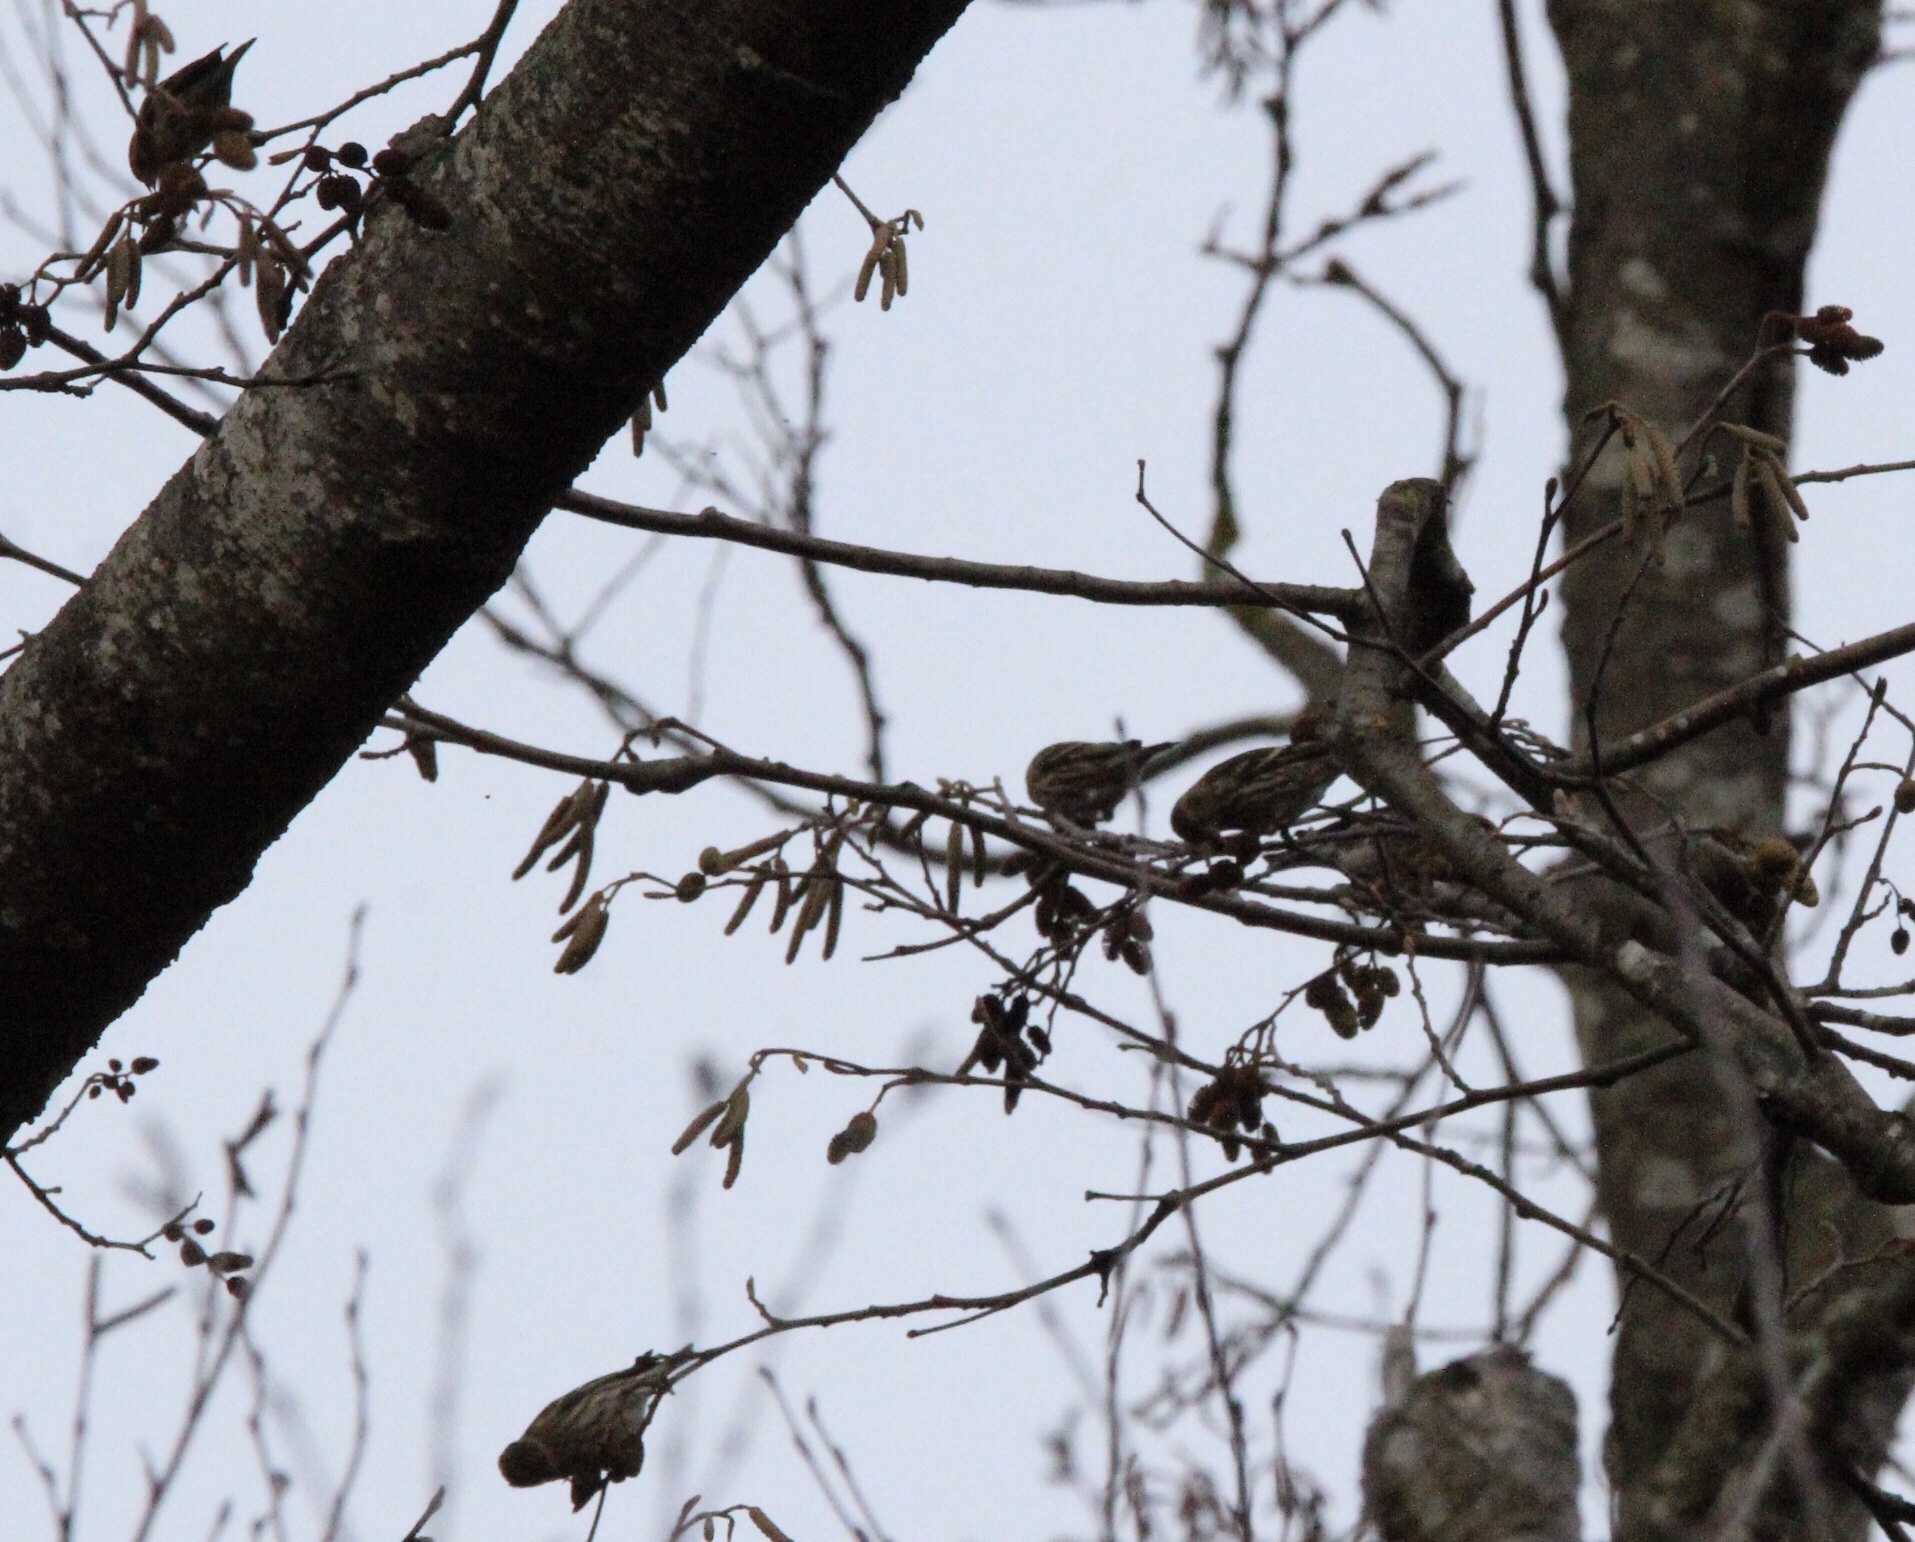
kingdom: Animalia
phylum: Chordata
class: Aves
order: Passeriformes
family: Fringillidae
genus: Spinus
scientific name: Spinus pinus
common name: Pine siskin
